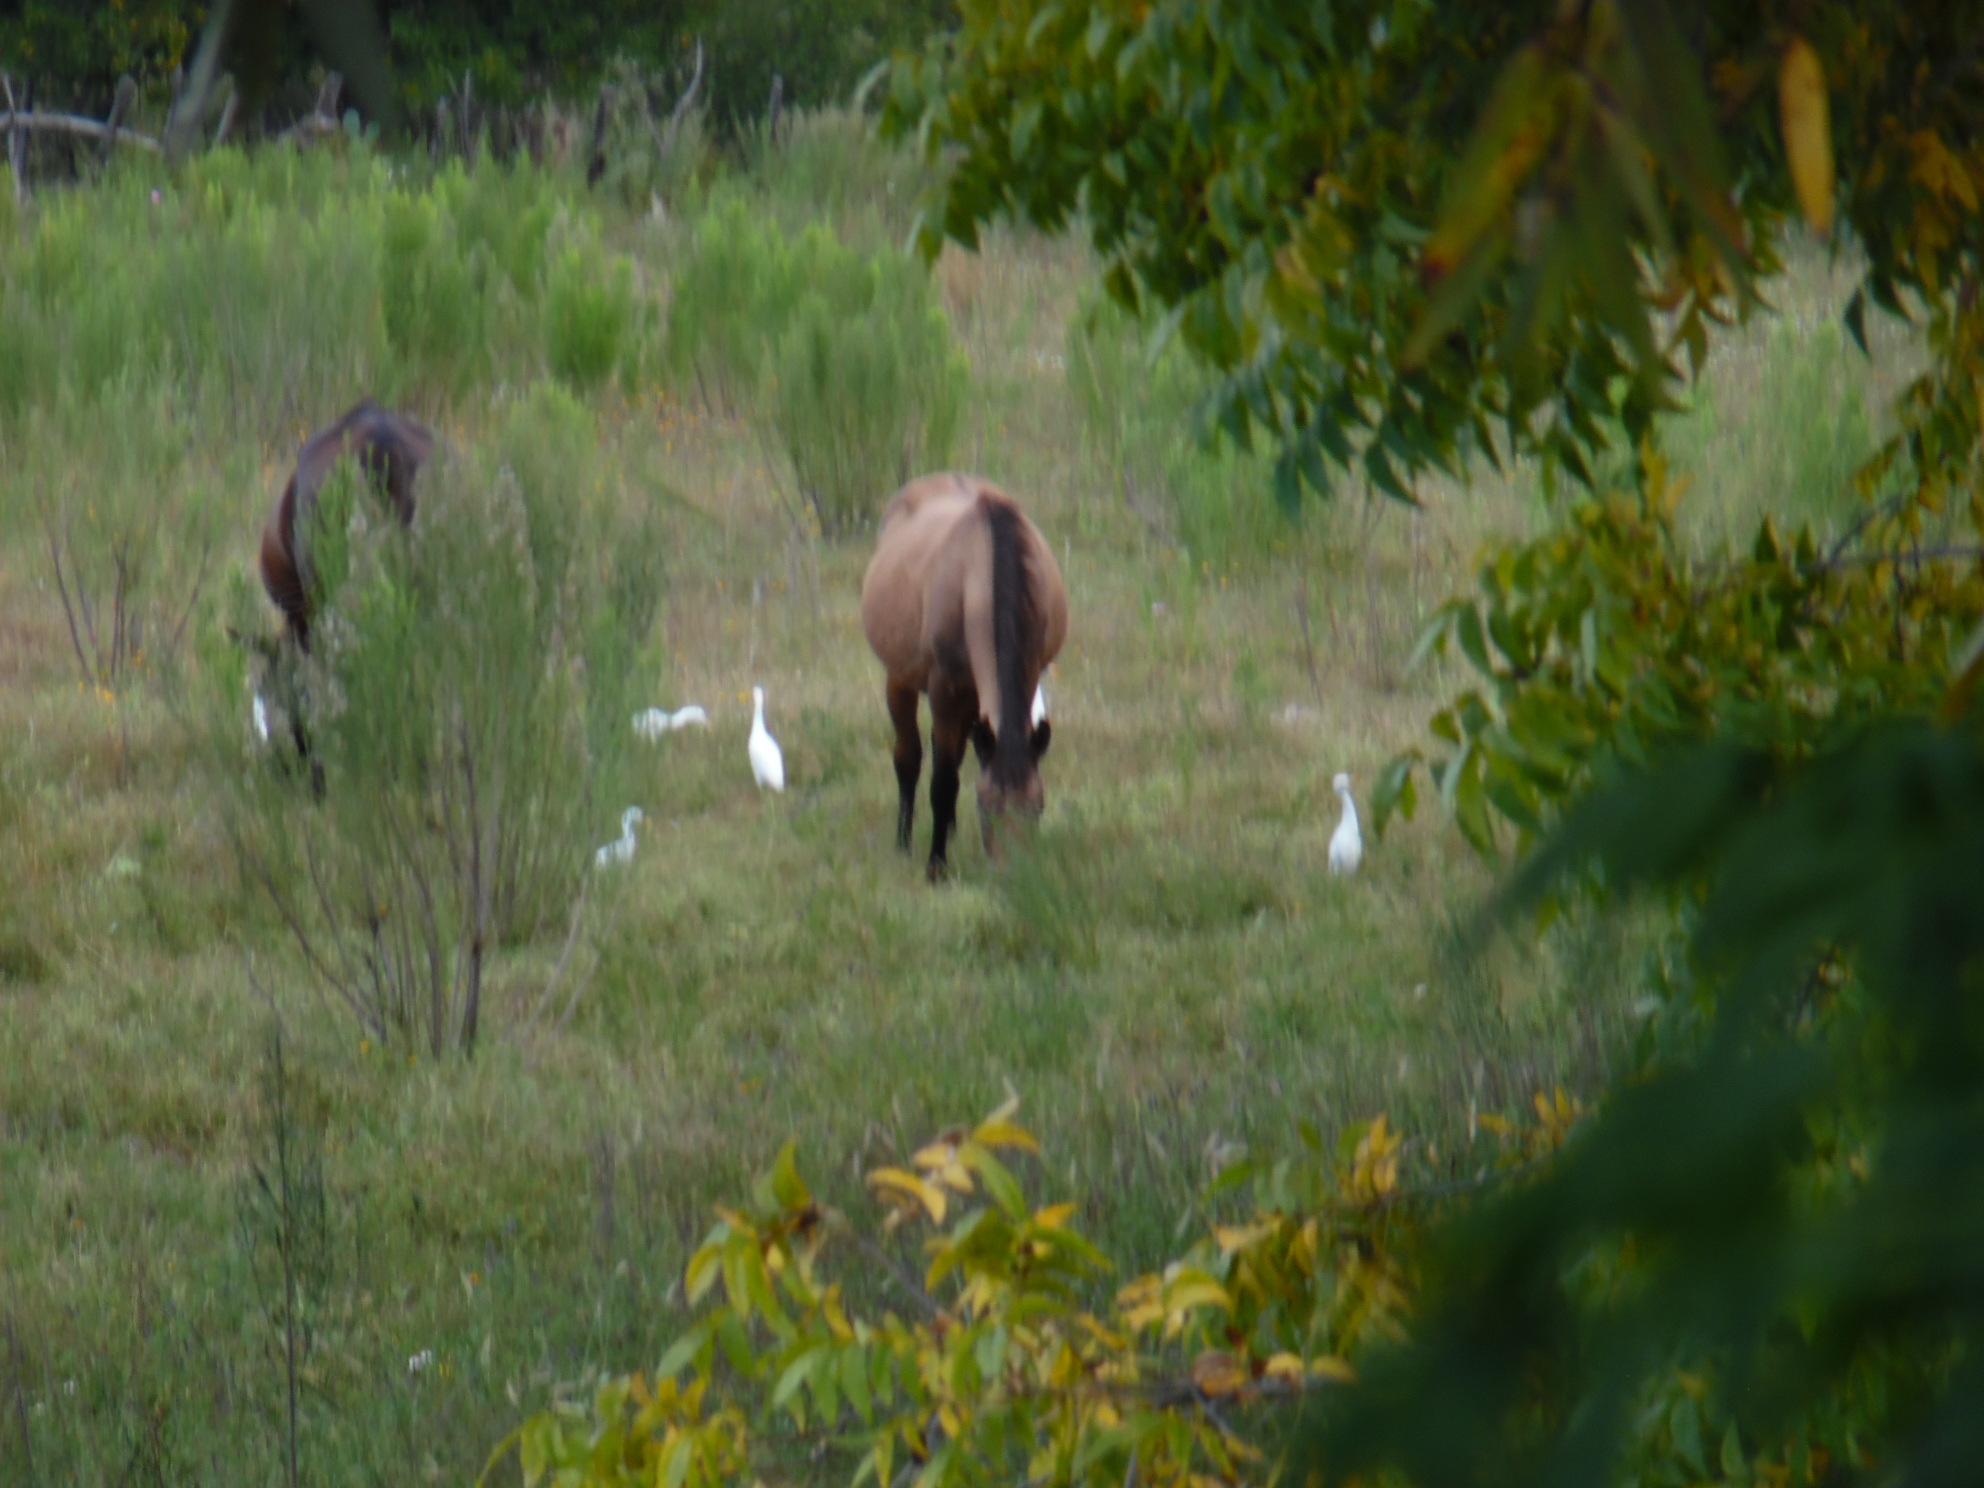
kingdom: Animalia
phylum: Chordata
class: Mammalia
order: Perissodactyla
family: Equidae
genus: Equus
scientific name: Equus caballus
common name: Horse
